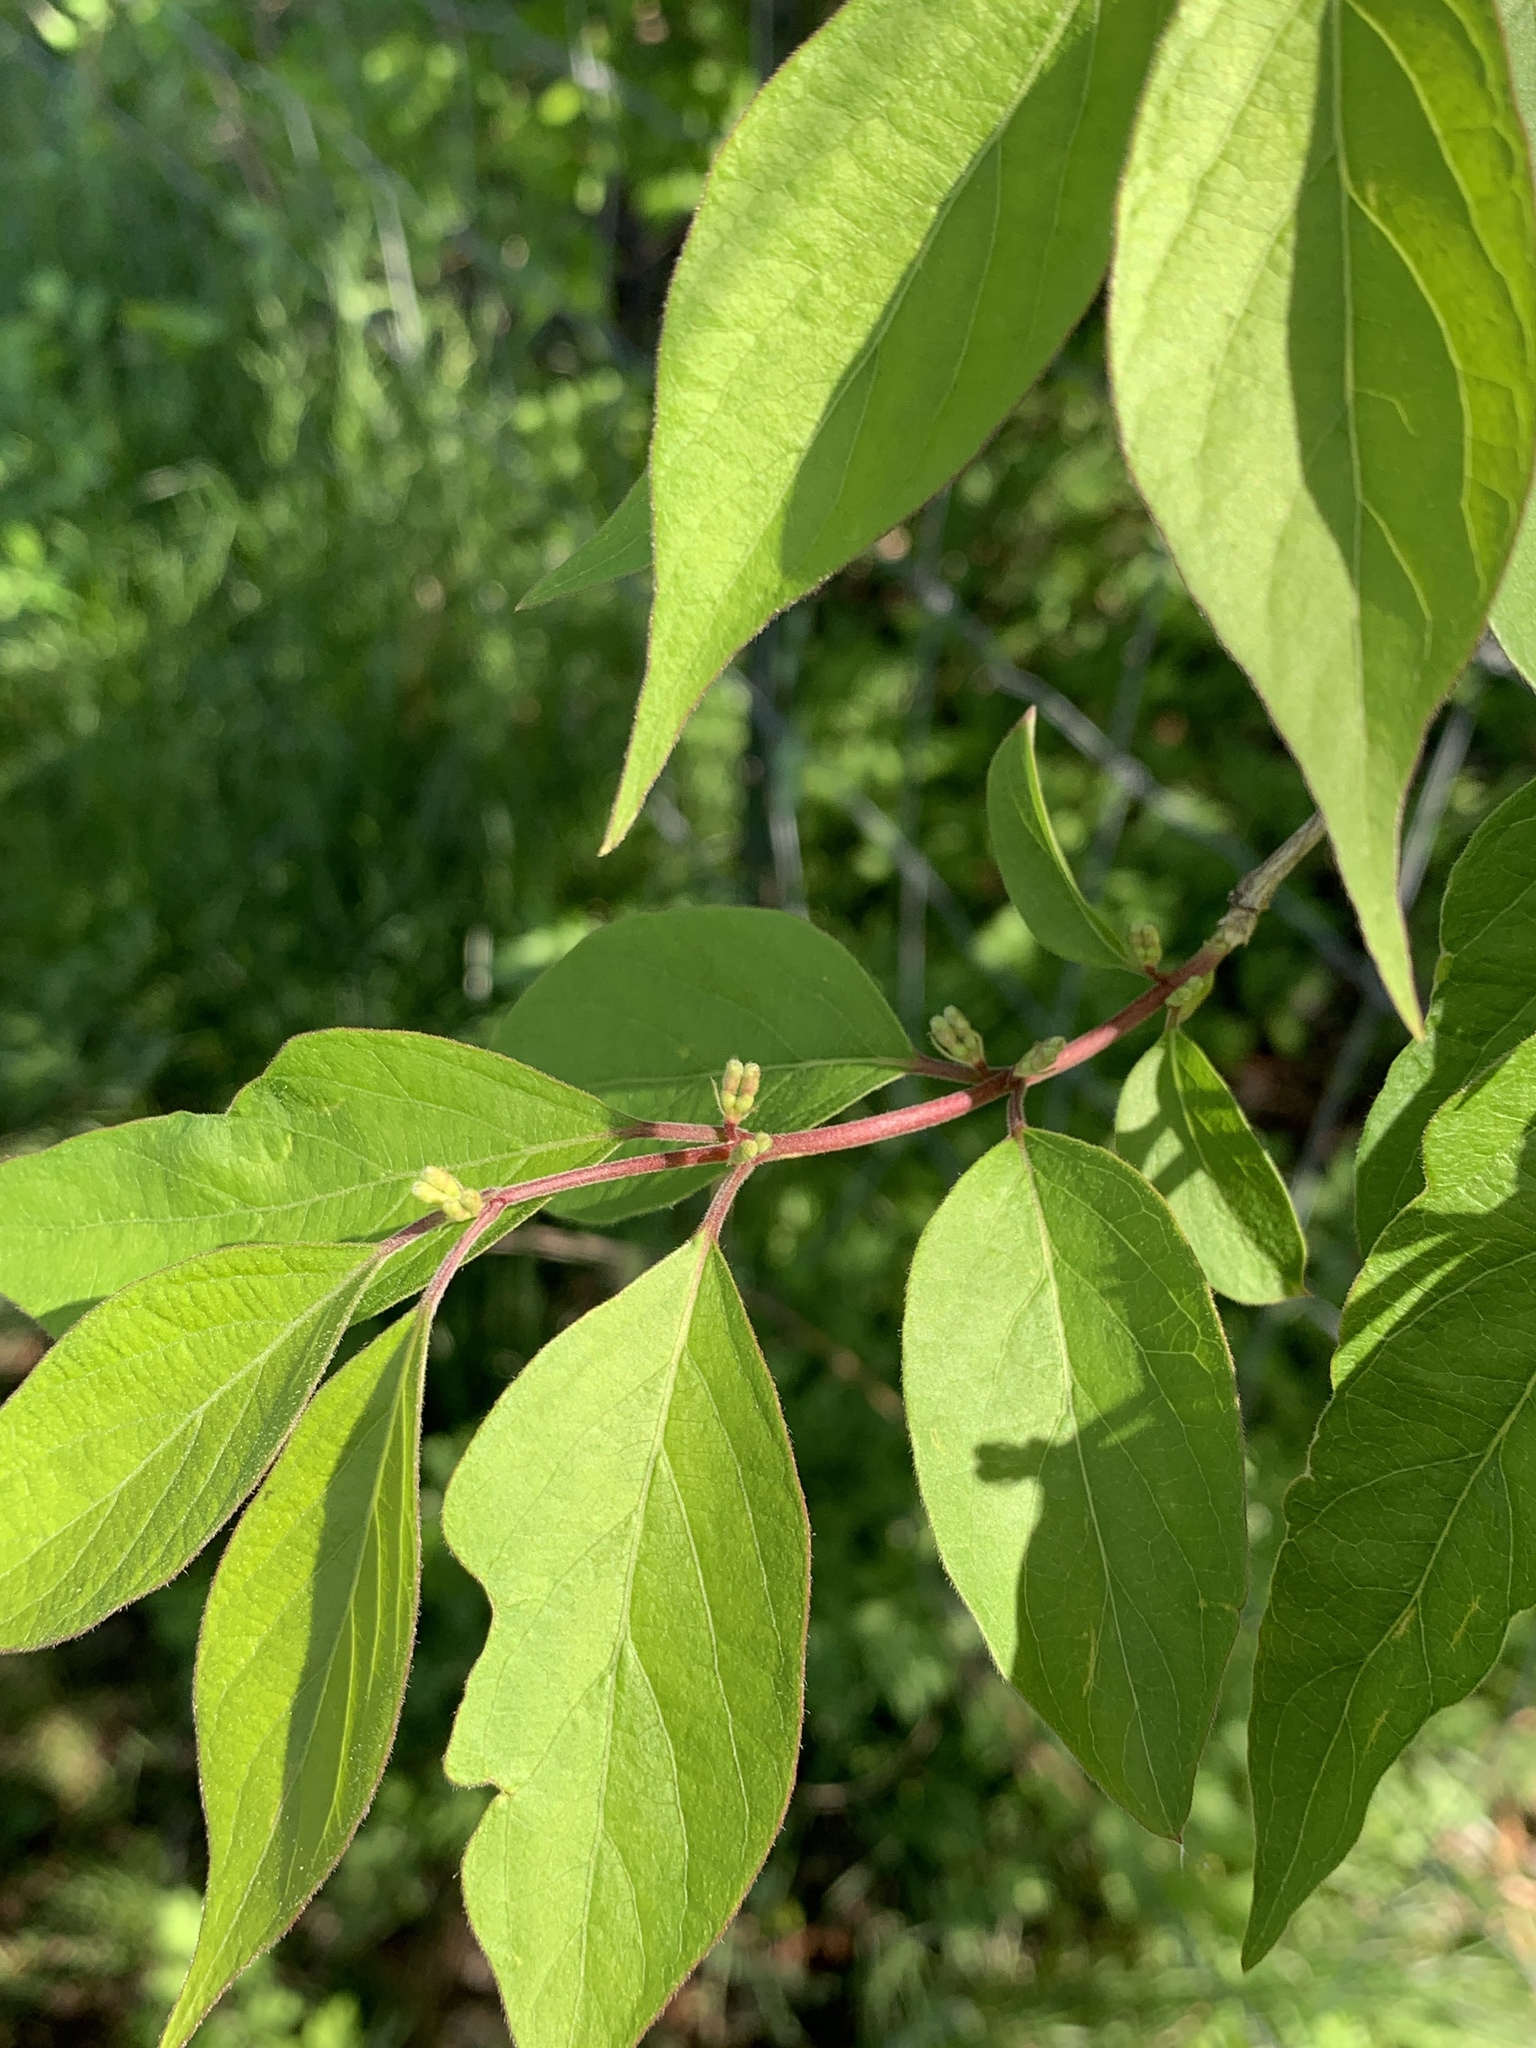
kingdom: Plantae
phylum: Tracheophyta
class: Magnoliopsida
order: Dipsacales
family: Caprifoliaceae
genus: Lonicera
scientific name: Lonicera maackii
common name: Amur honeysuckle
